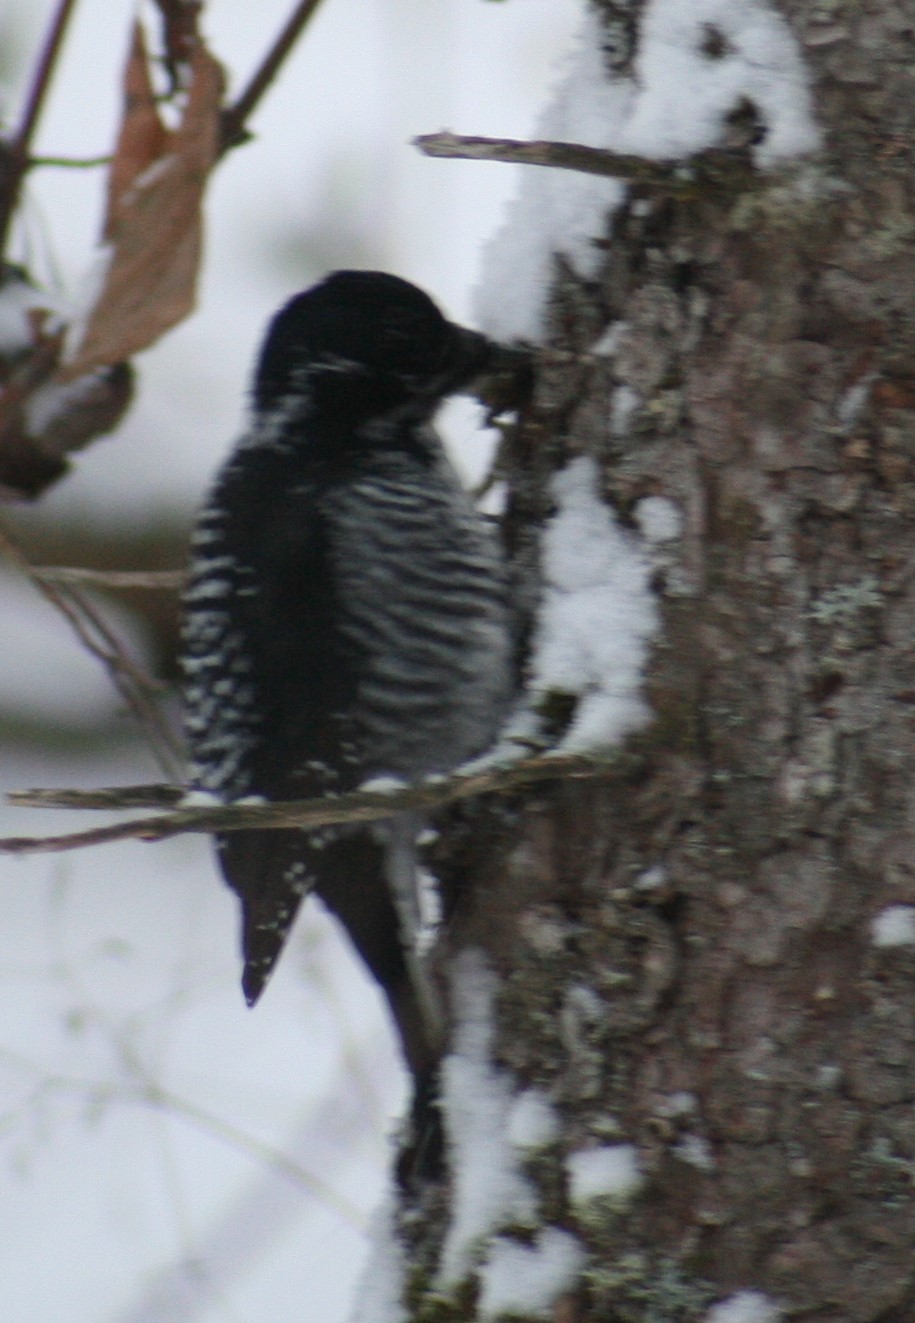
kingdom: Animalia
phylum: Chordata
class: Aves
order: Piciformes
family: Picidae
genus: Picoides
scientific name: Picoides dorsalis
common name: American three-toed woodpecker
